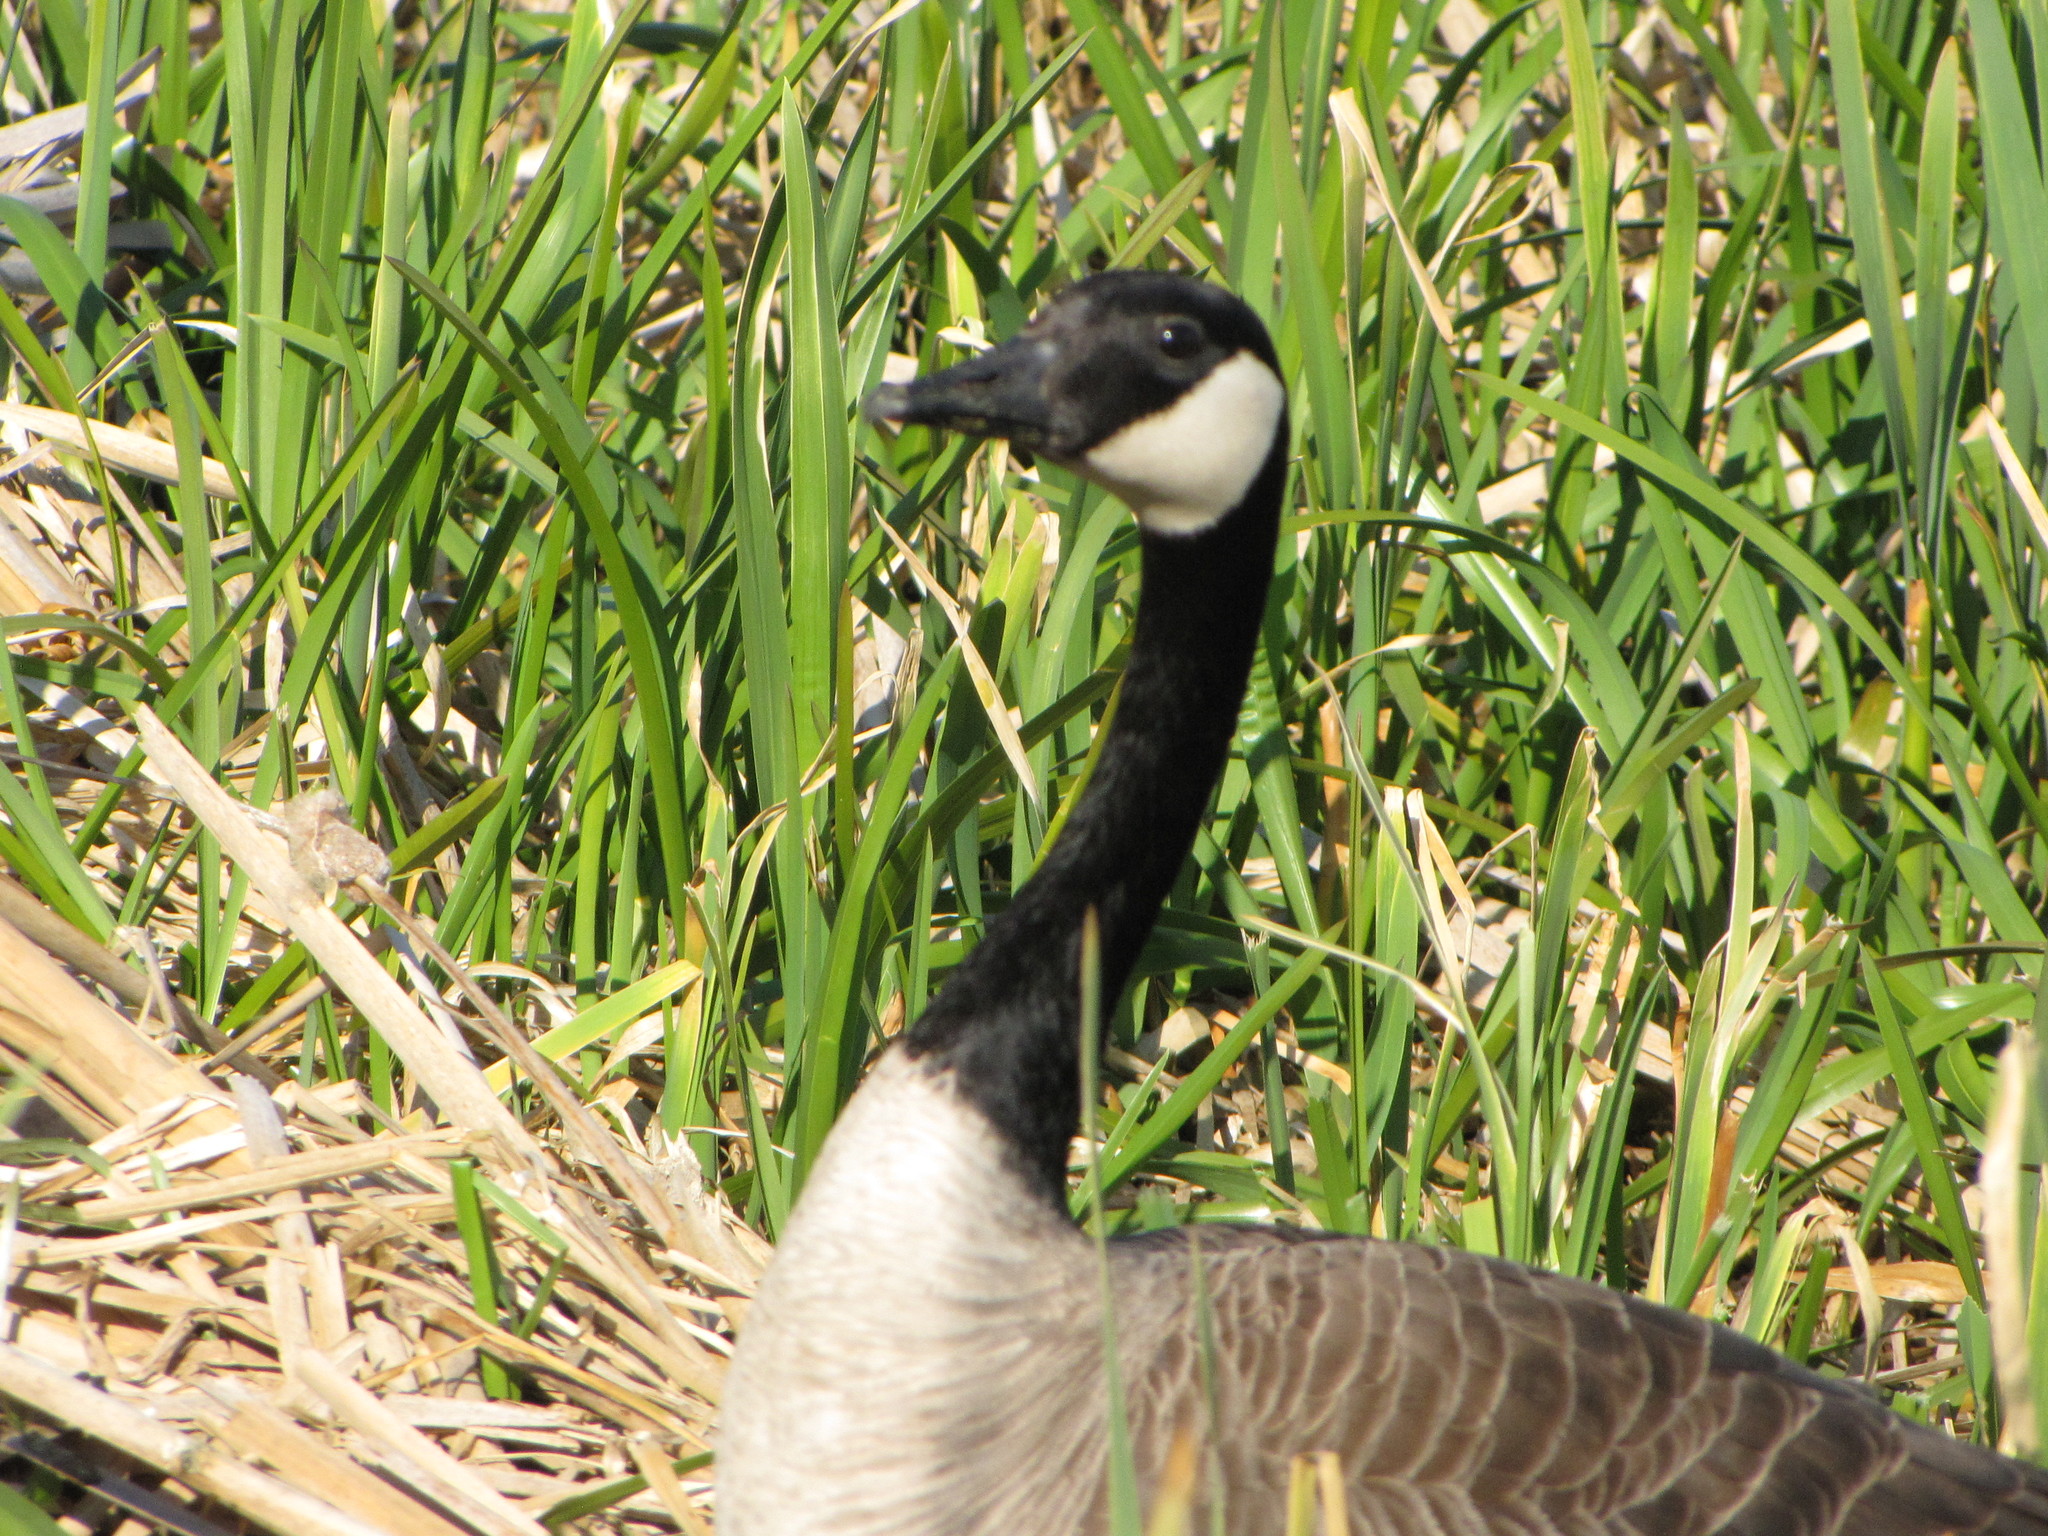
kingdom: Animalia
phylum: Chordata
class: Aves
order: Anseriformes
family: Anatidae
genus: Branta
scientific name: Branta canadensis
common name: Canada goose
